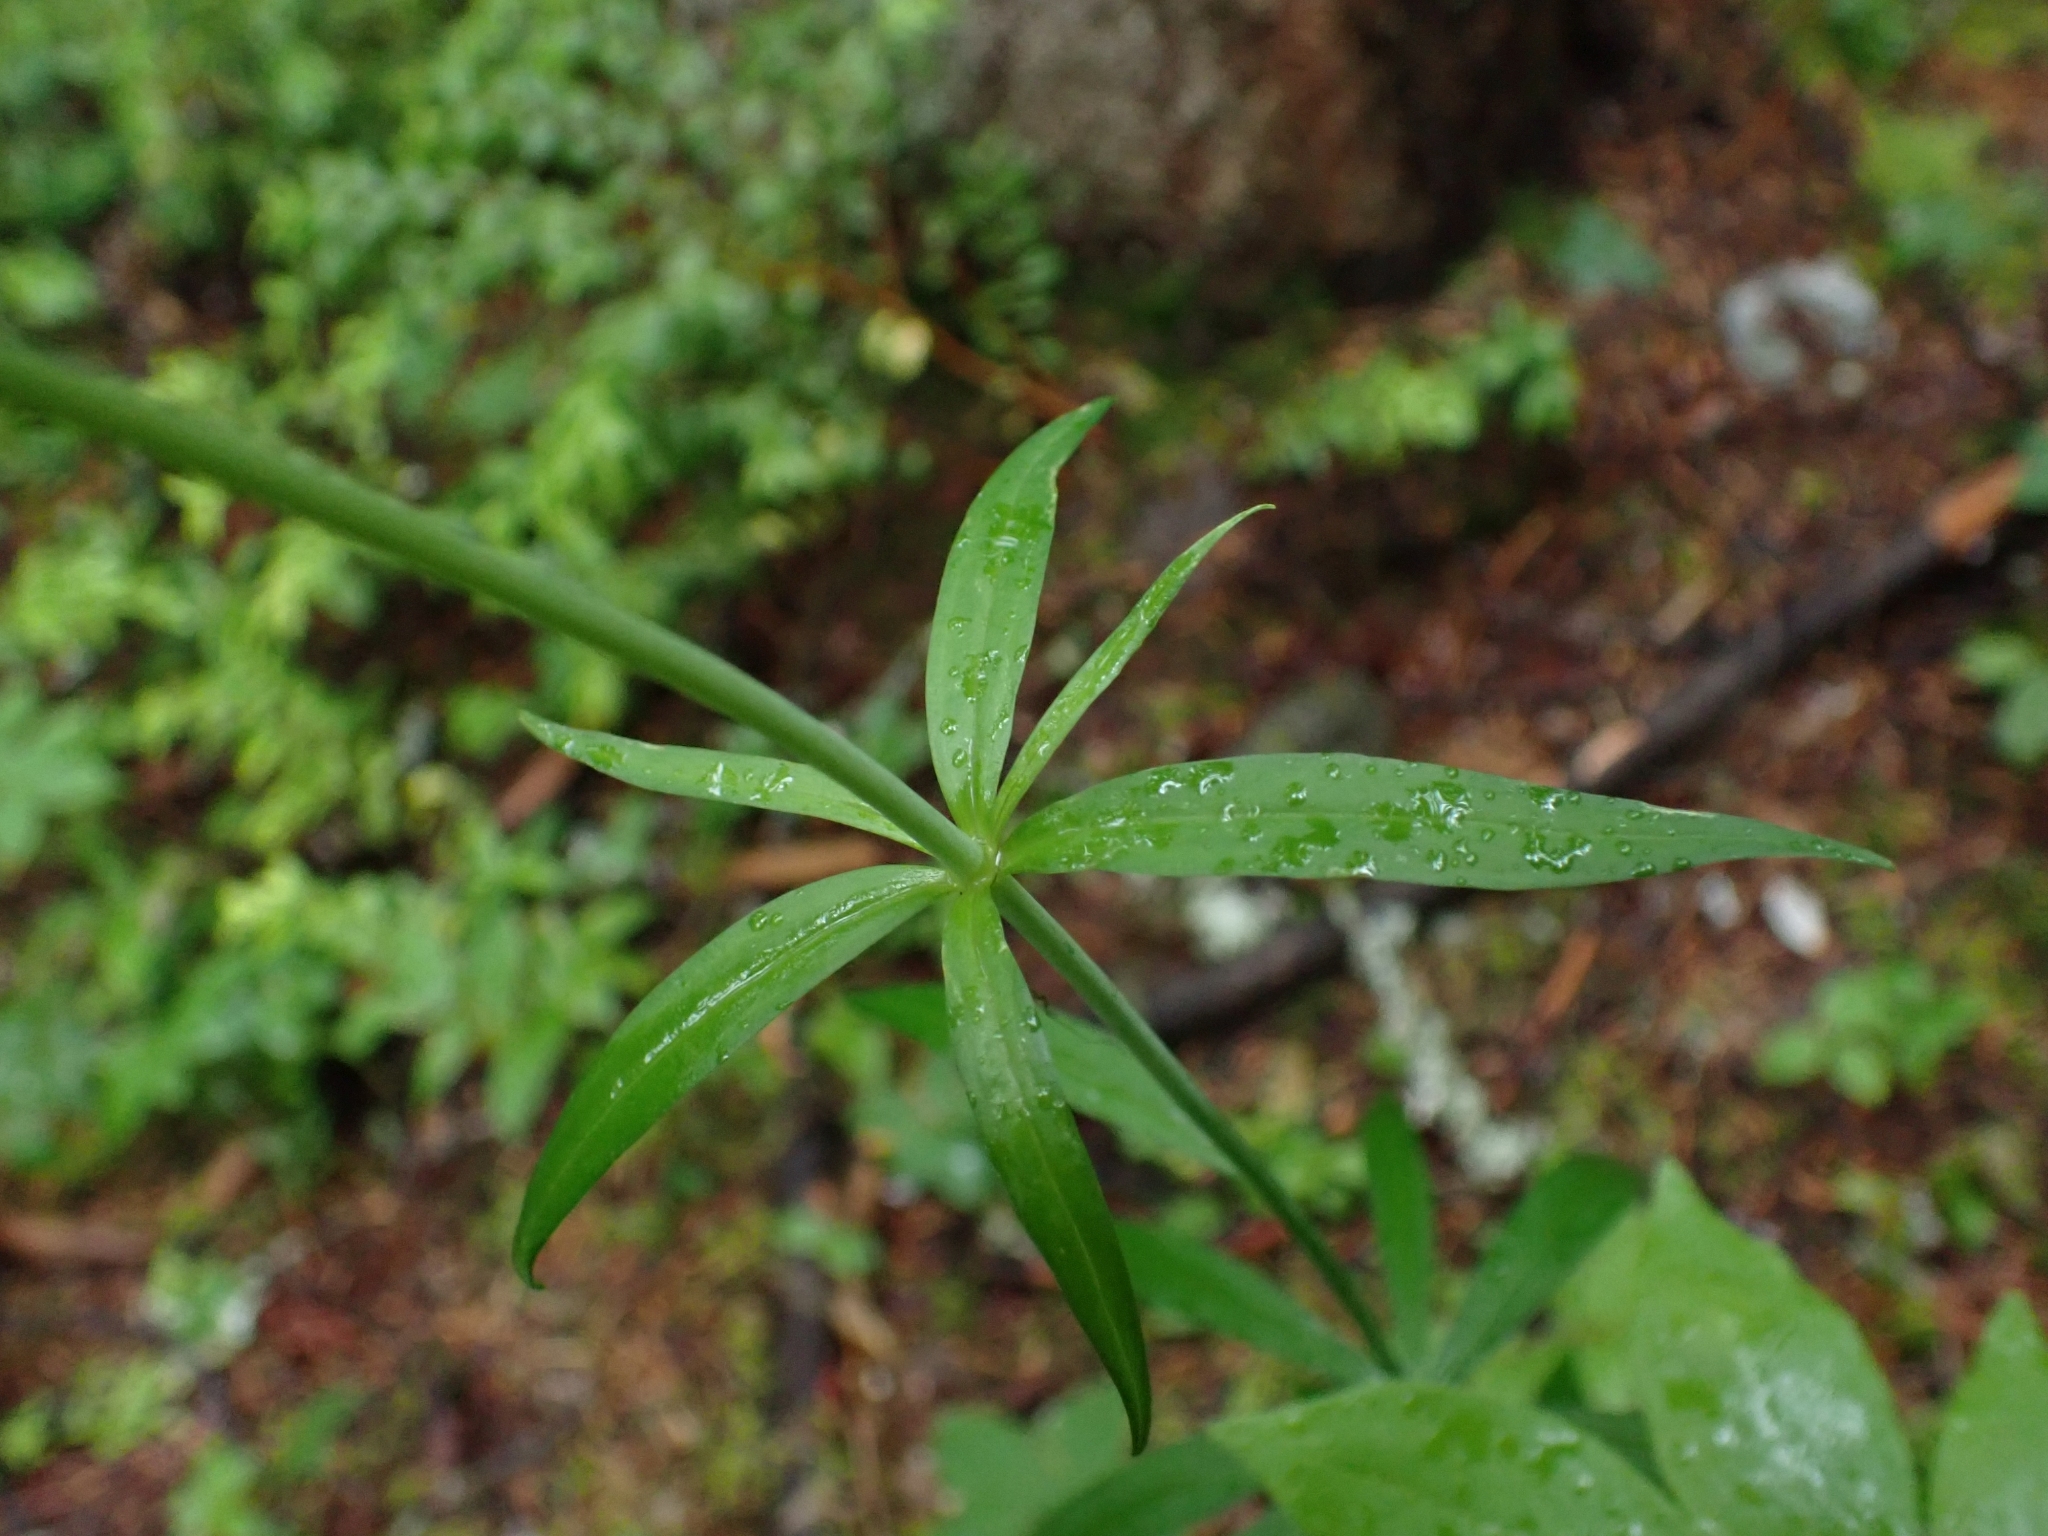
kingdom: Plantae
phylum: Tracheophyta
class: Liliopsida
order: Liliales
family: Liliaceae
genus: Lilium
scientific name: Lilium columbianum
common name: Columbia lily
